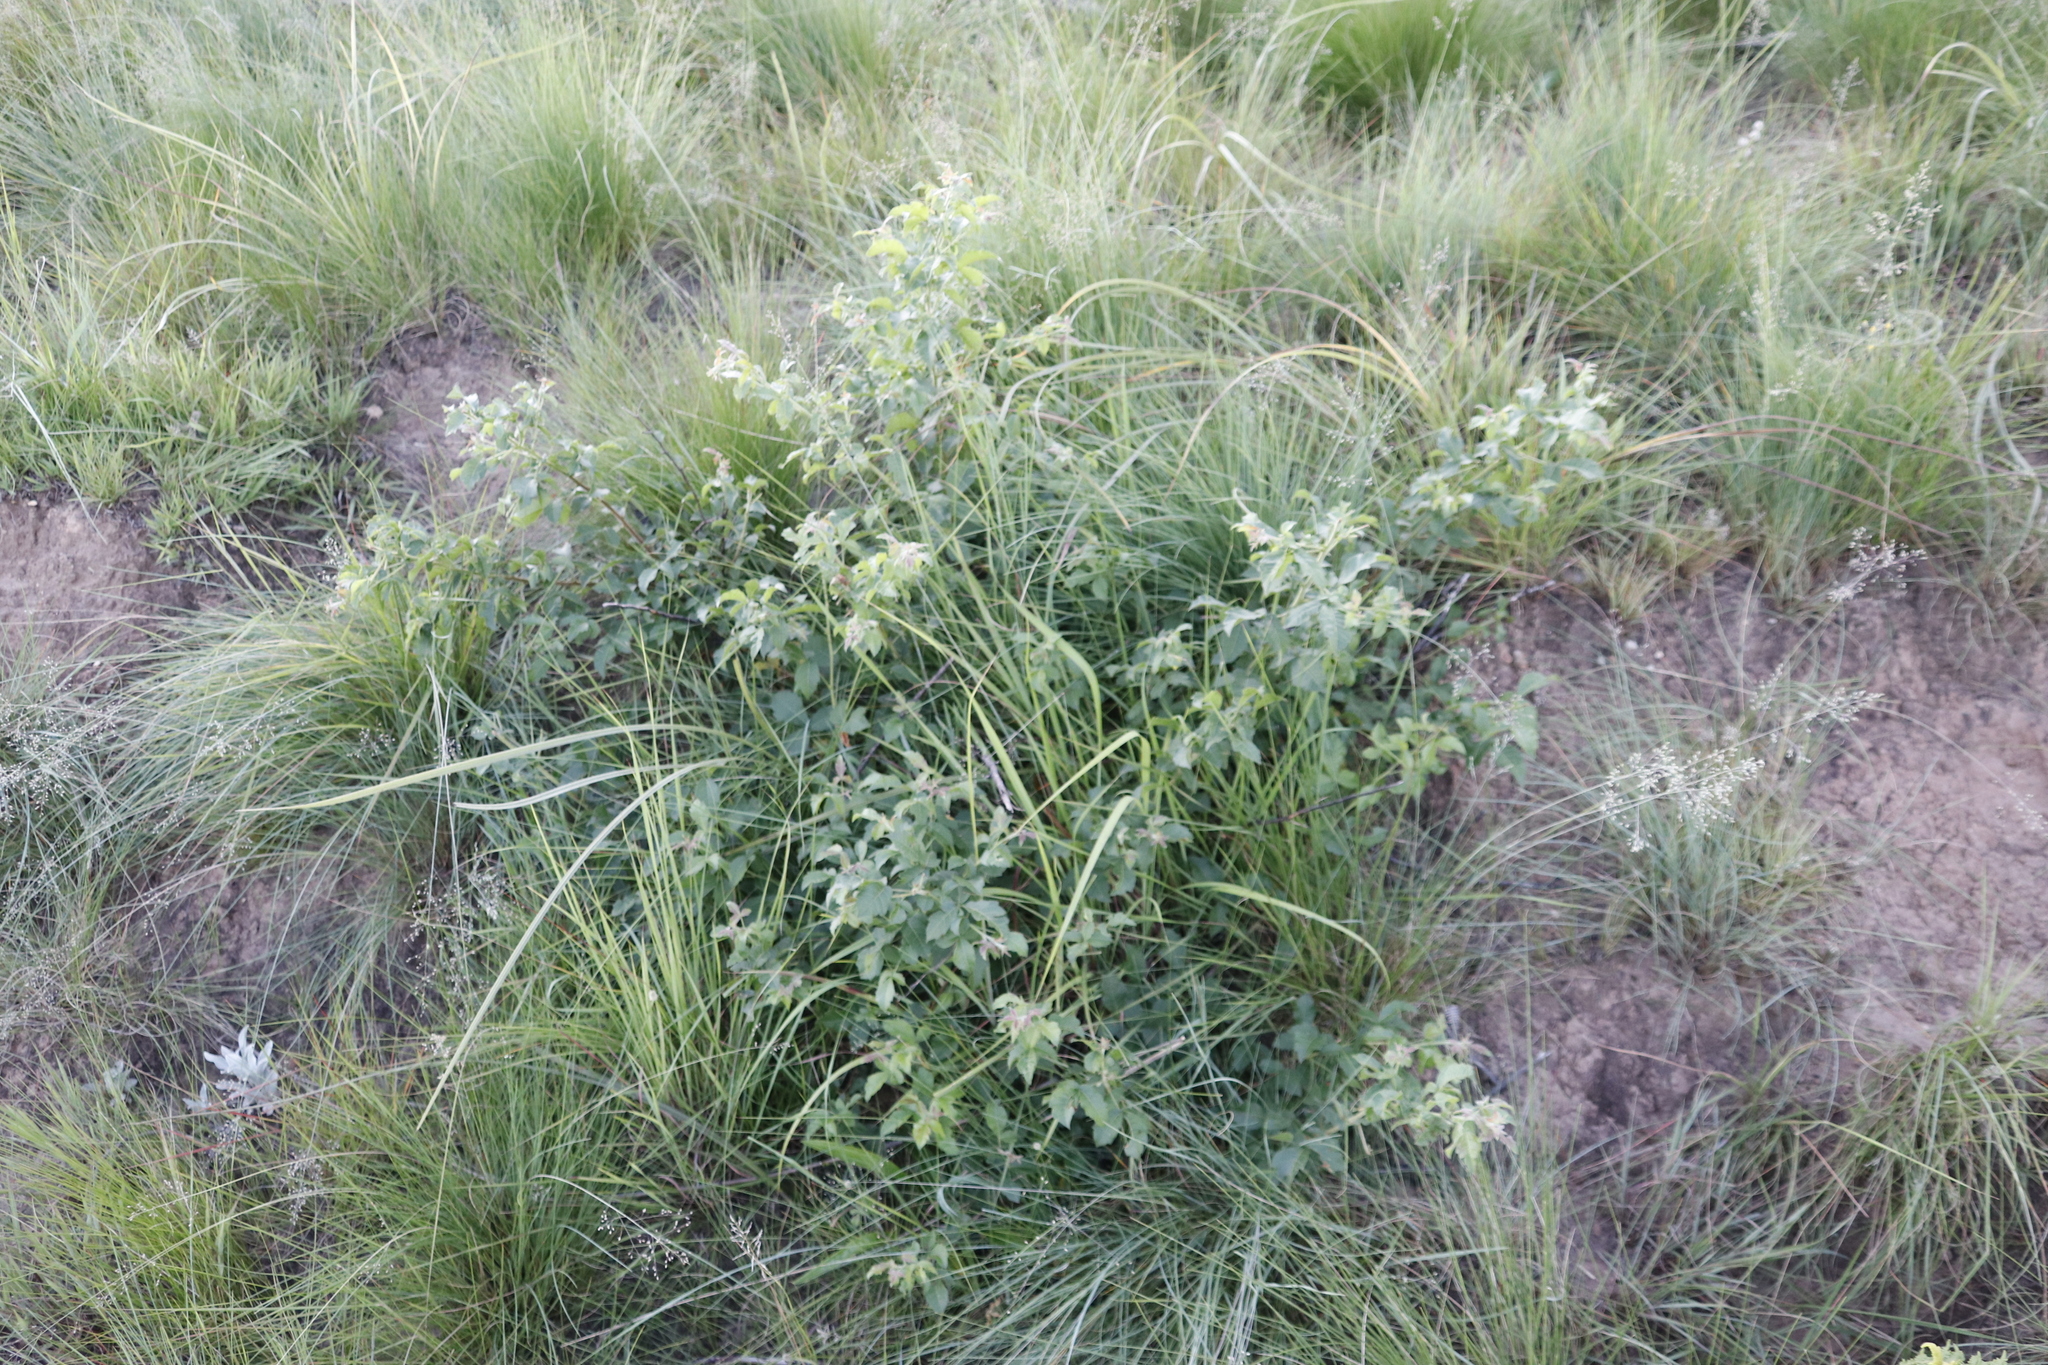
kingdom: Plantae
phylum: Tracheophyta
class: Magnoliopsida
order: Sapindales
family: Anacardiaceae
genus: Searsia
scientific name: Searsia dentata
